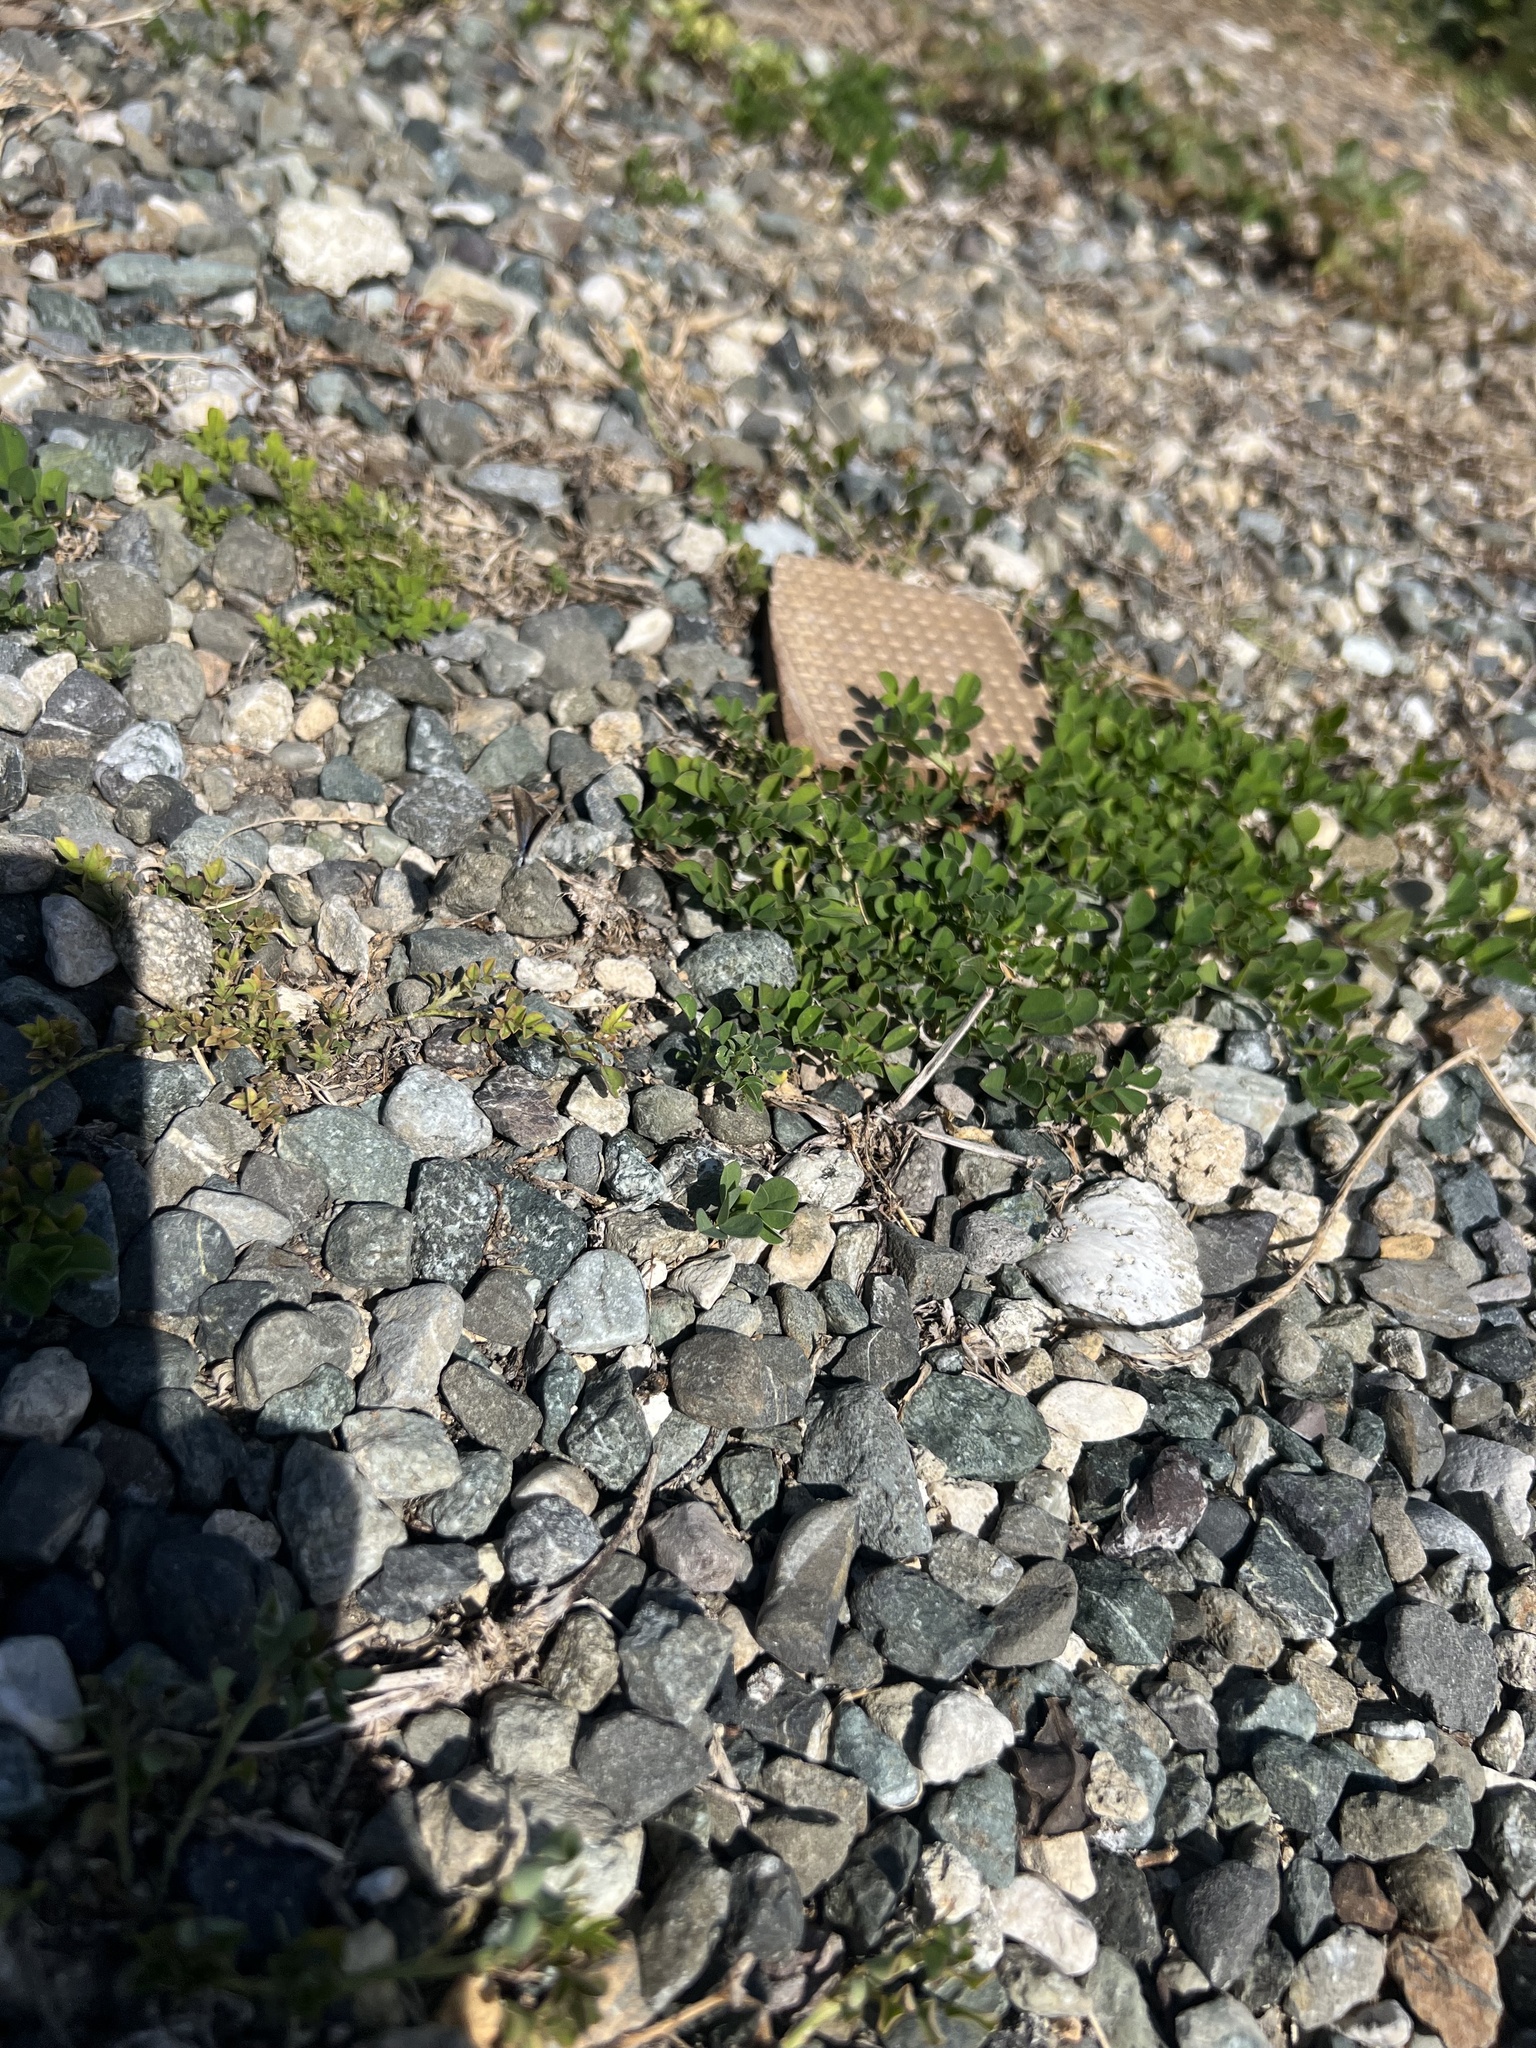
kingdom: Plantae
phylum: Tracheophyta
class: Magnoliopsida
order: Fabales
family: Fabaceae
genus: Indigofera
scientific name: Indigofera spicata
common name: Creeping indigo
